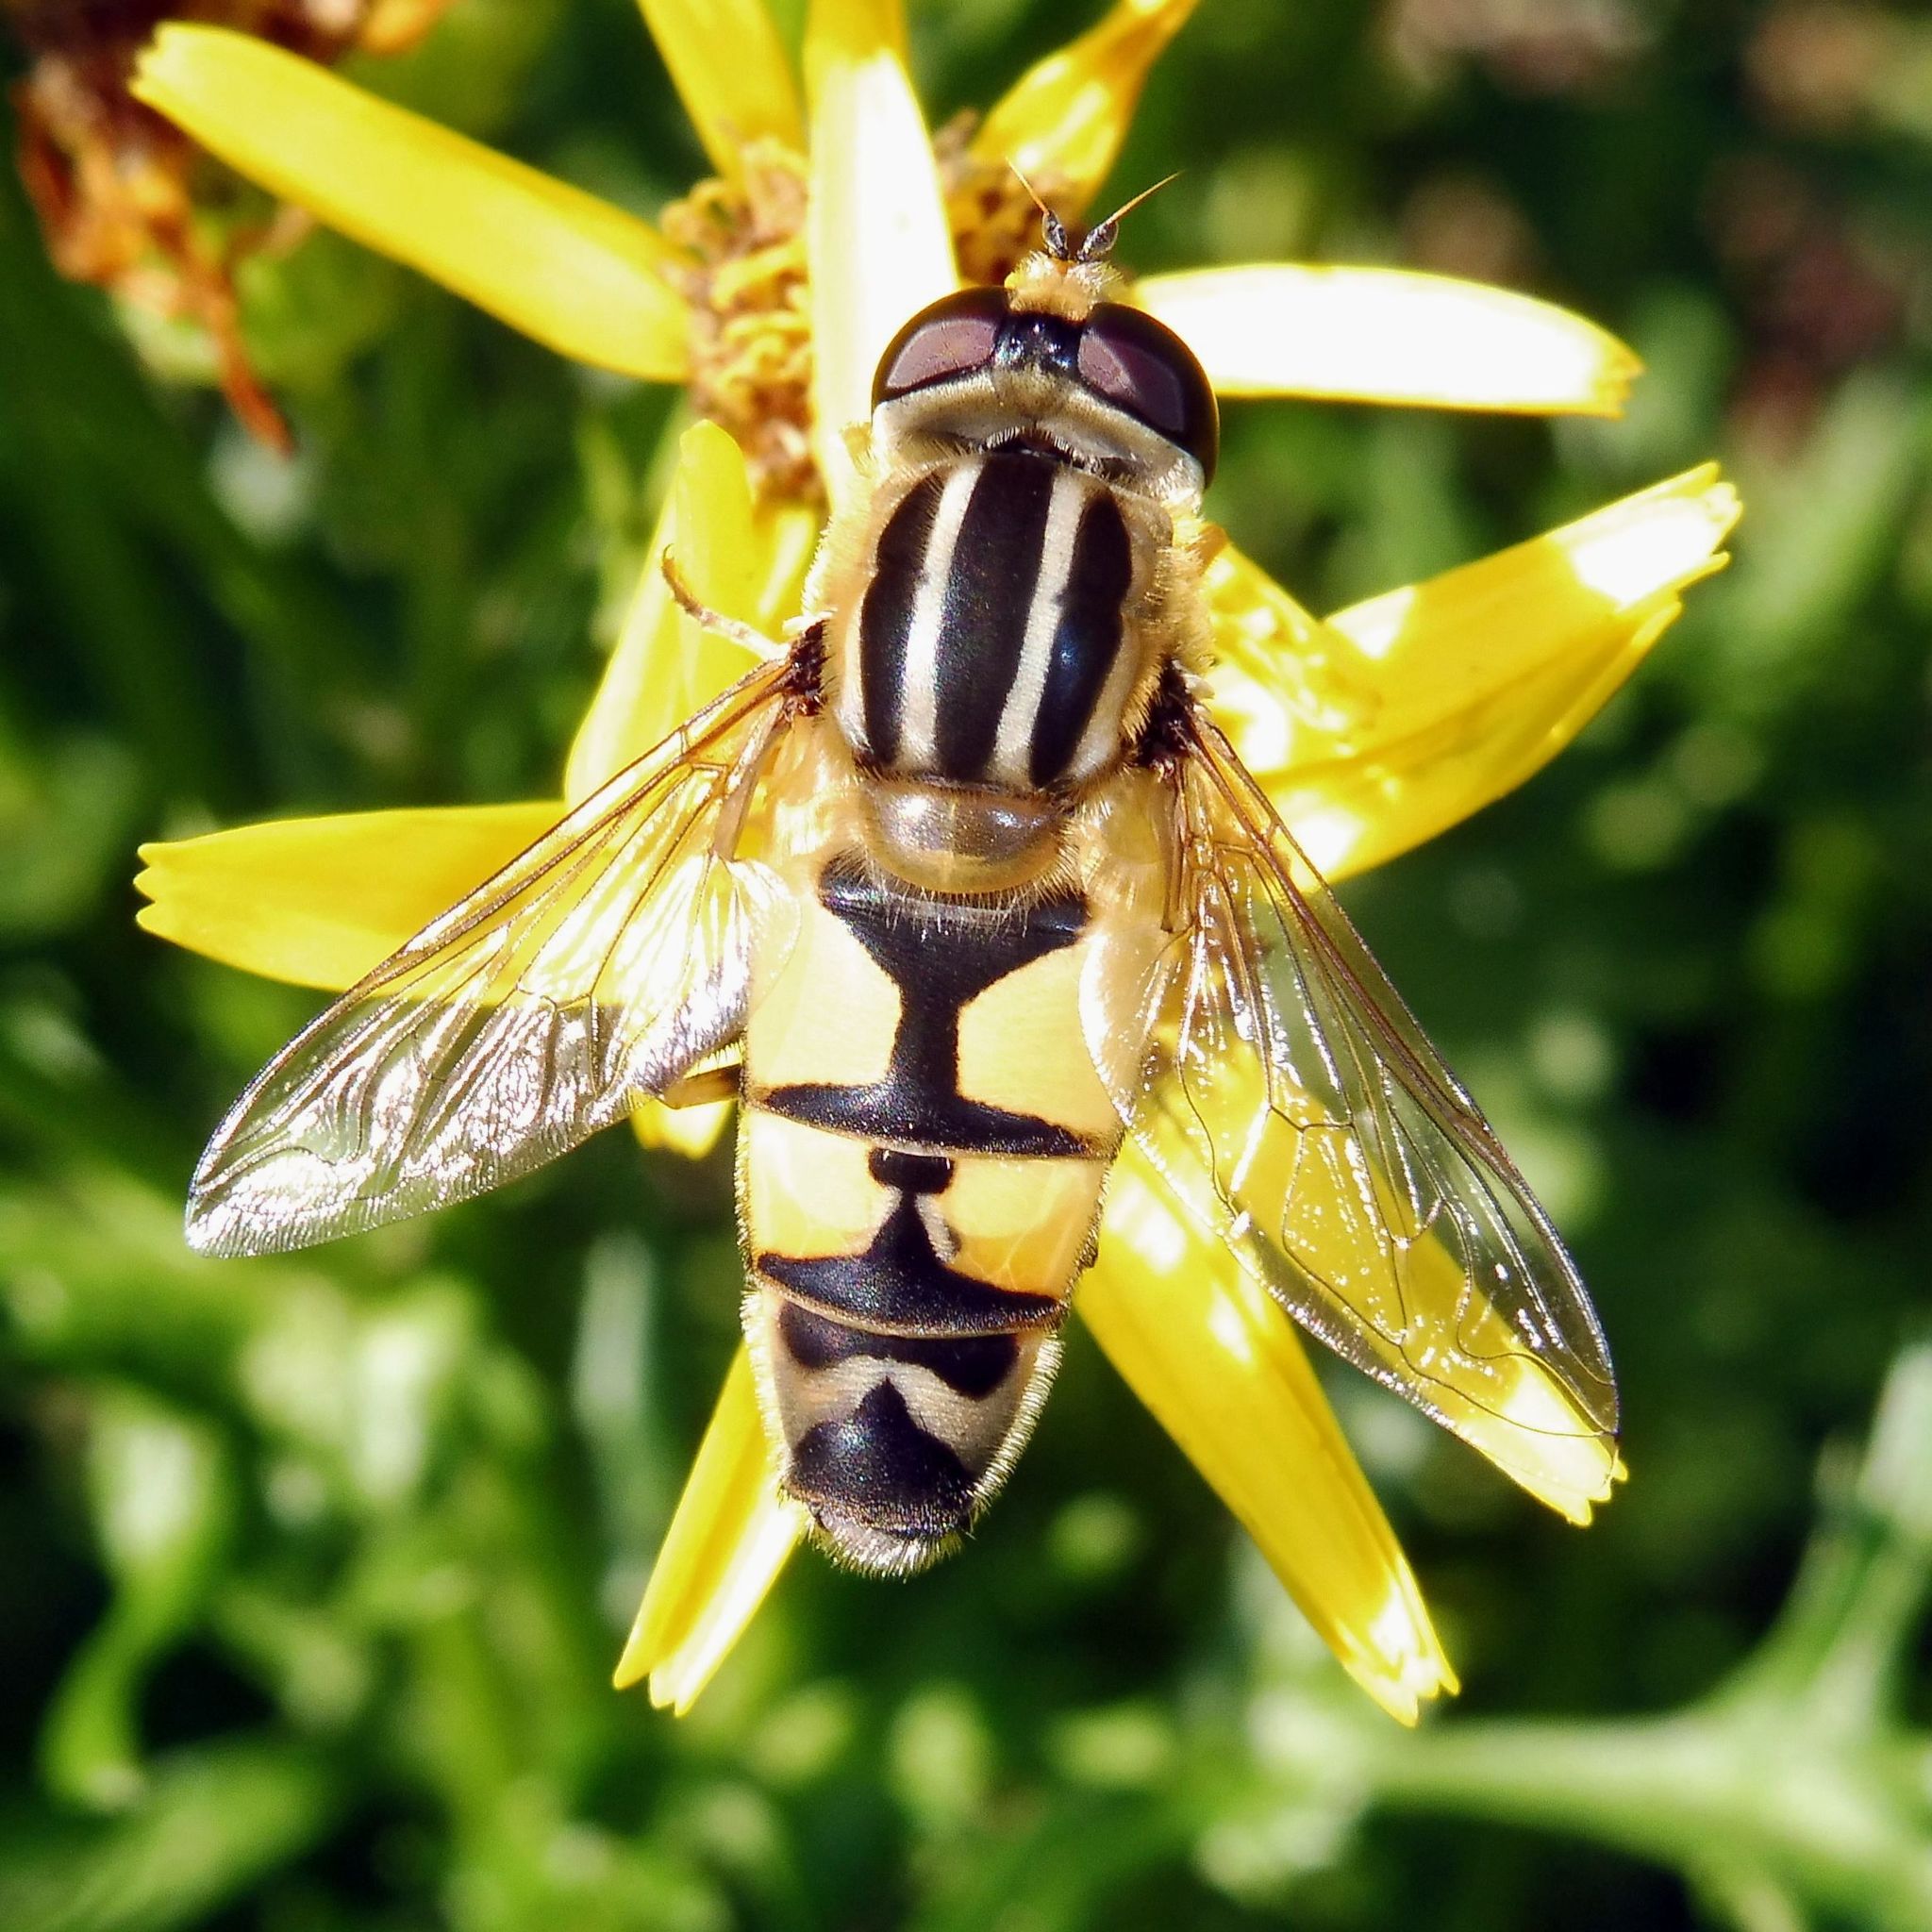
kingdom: Animalia
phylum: Arthropoda
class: Insecta
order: Diptera
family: Syrphidae
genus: Helophilus
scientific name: Helophilus trivittatus
